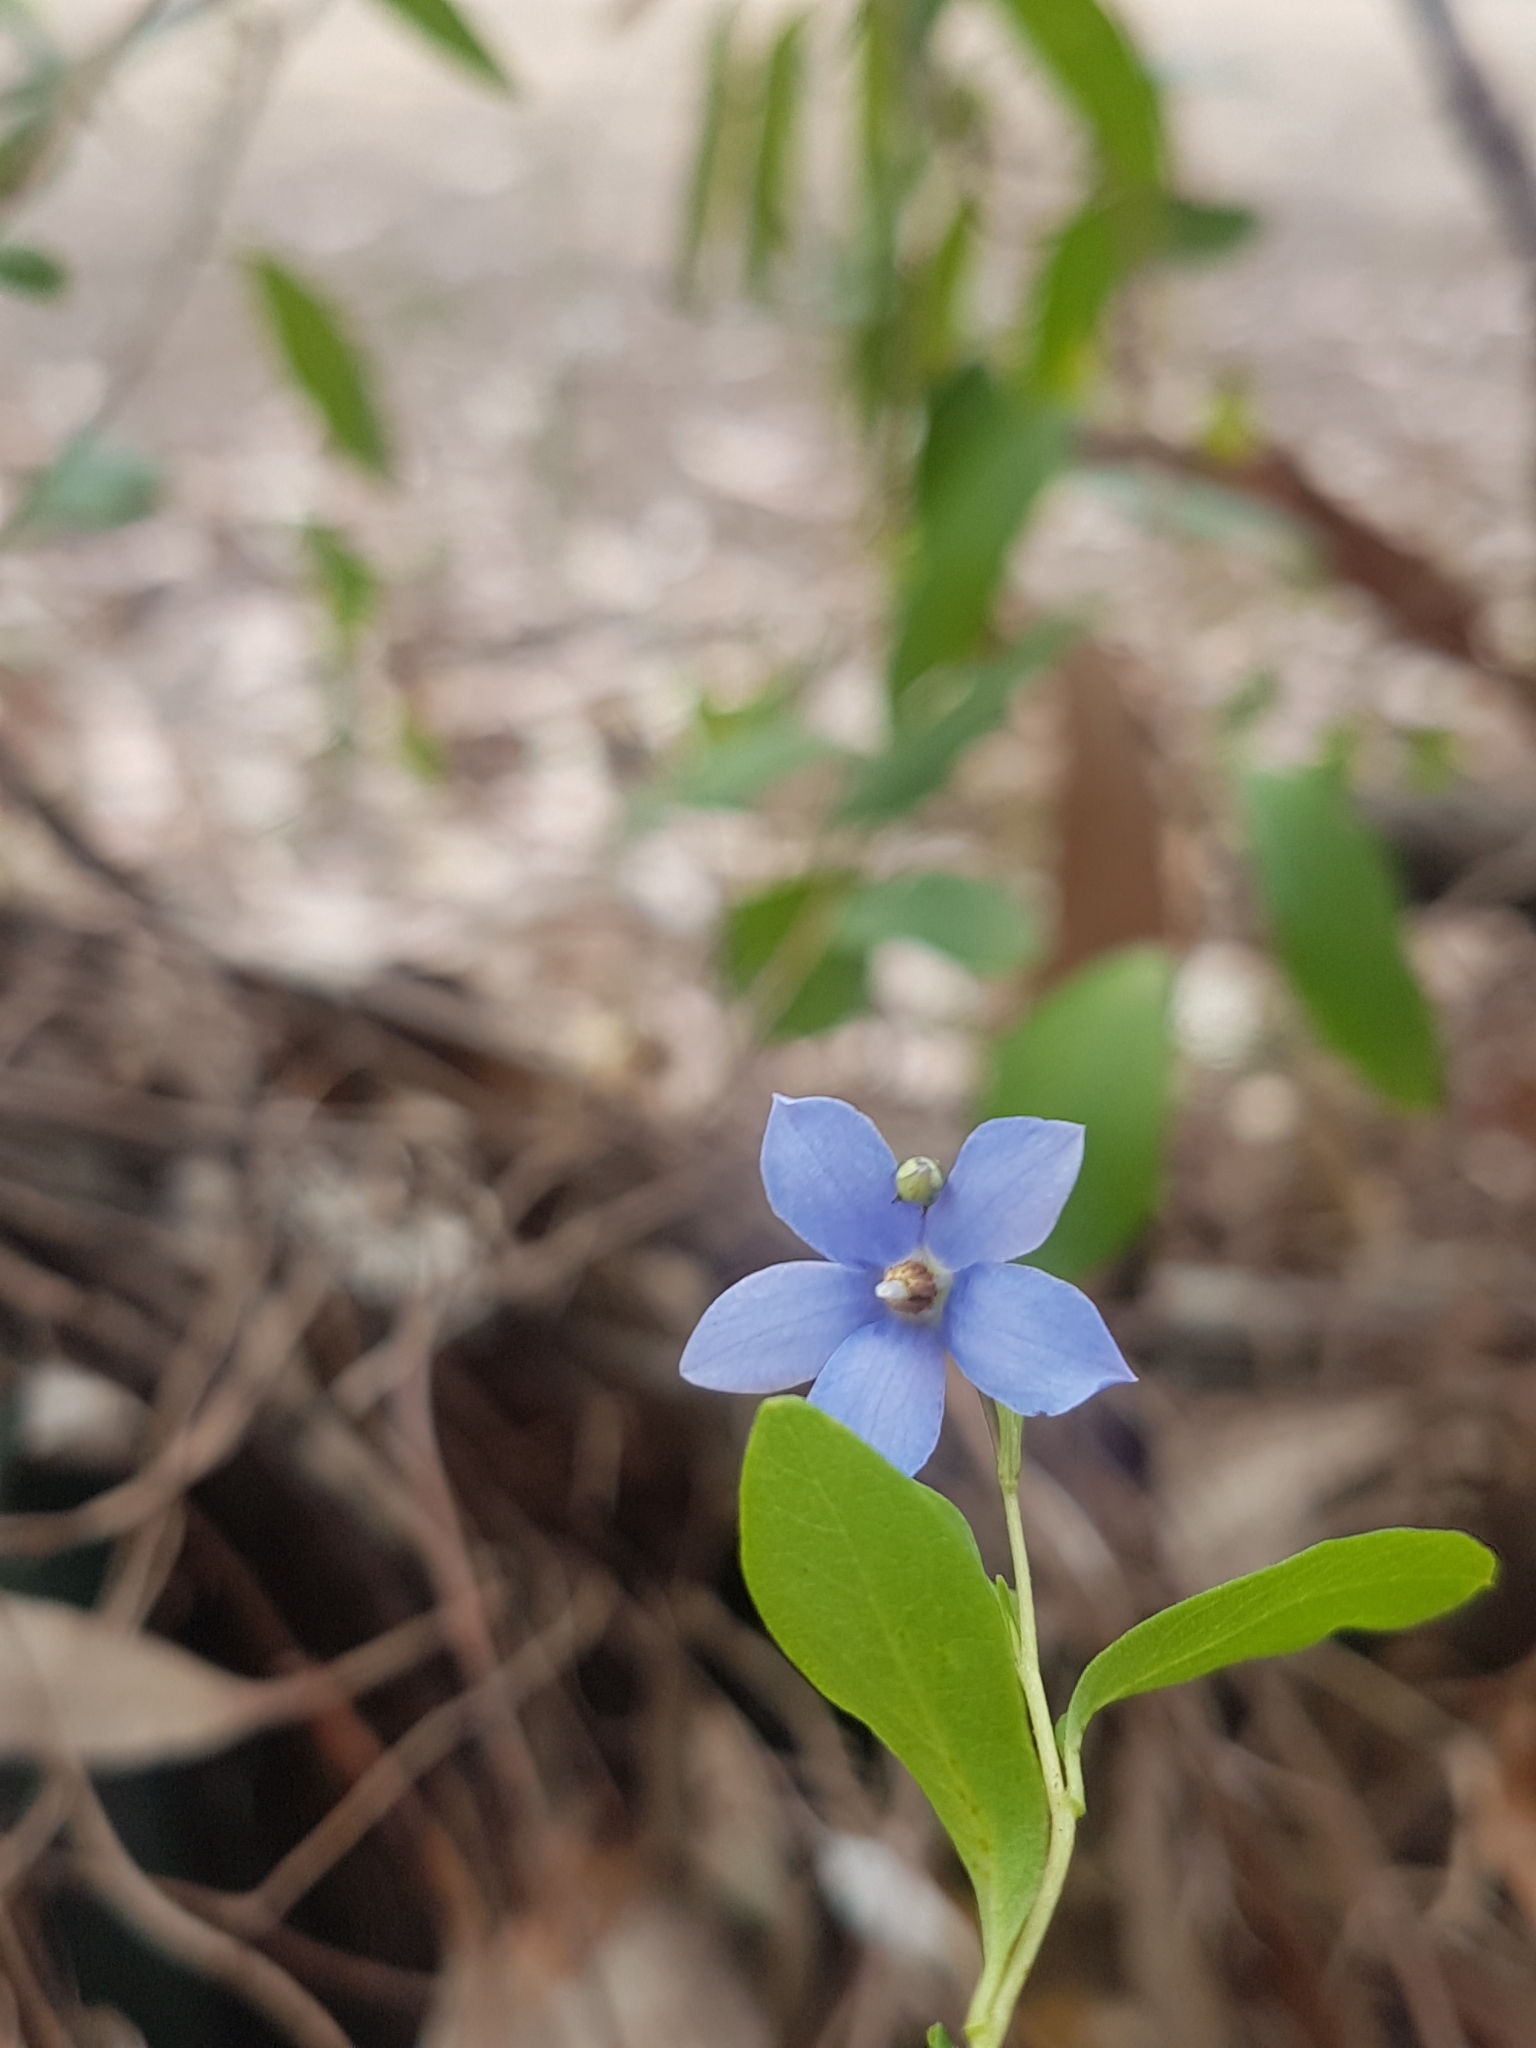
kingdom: Plantae
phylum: Tracheophyta
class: Magnoliopsida
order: Apiales
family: Pittosporaceae
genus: Billardiera
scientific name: Billardiera heterophylla
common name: Bluebell creeper
